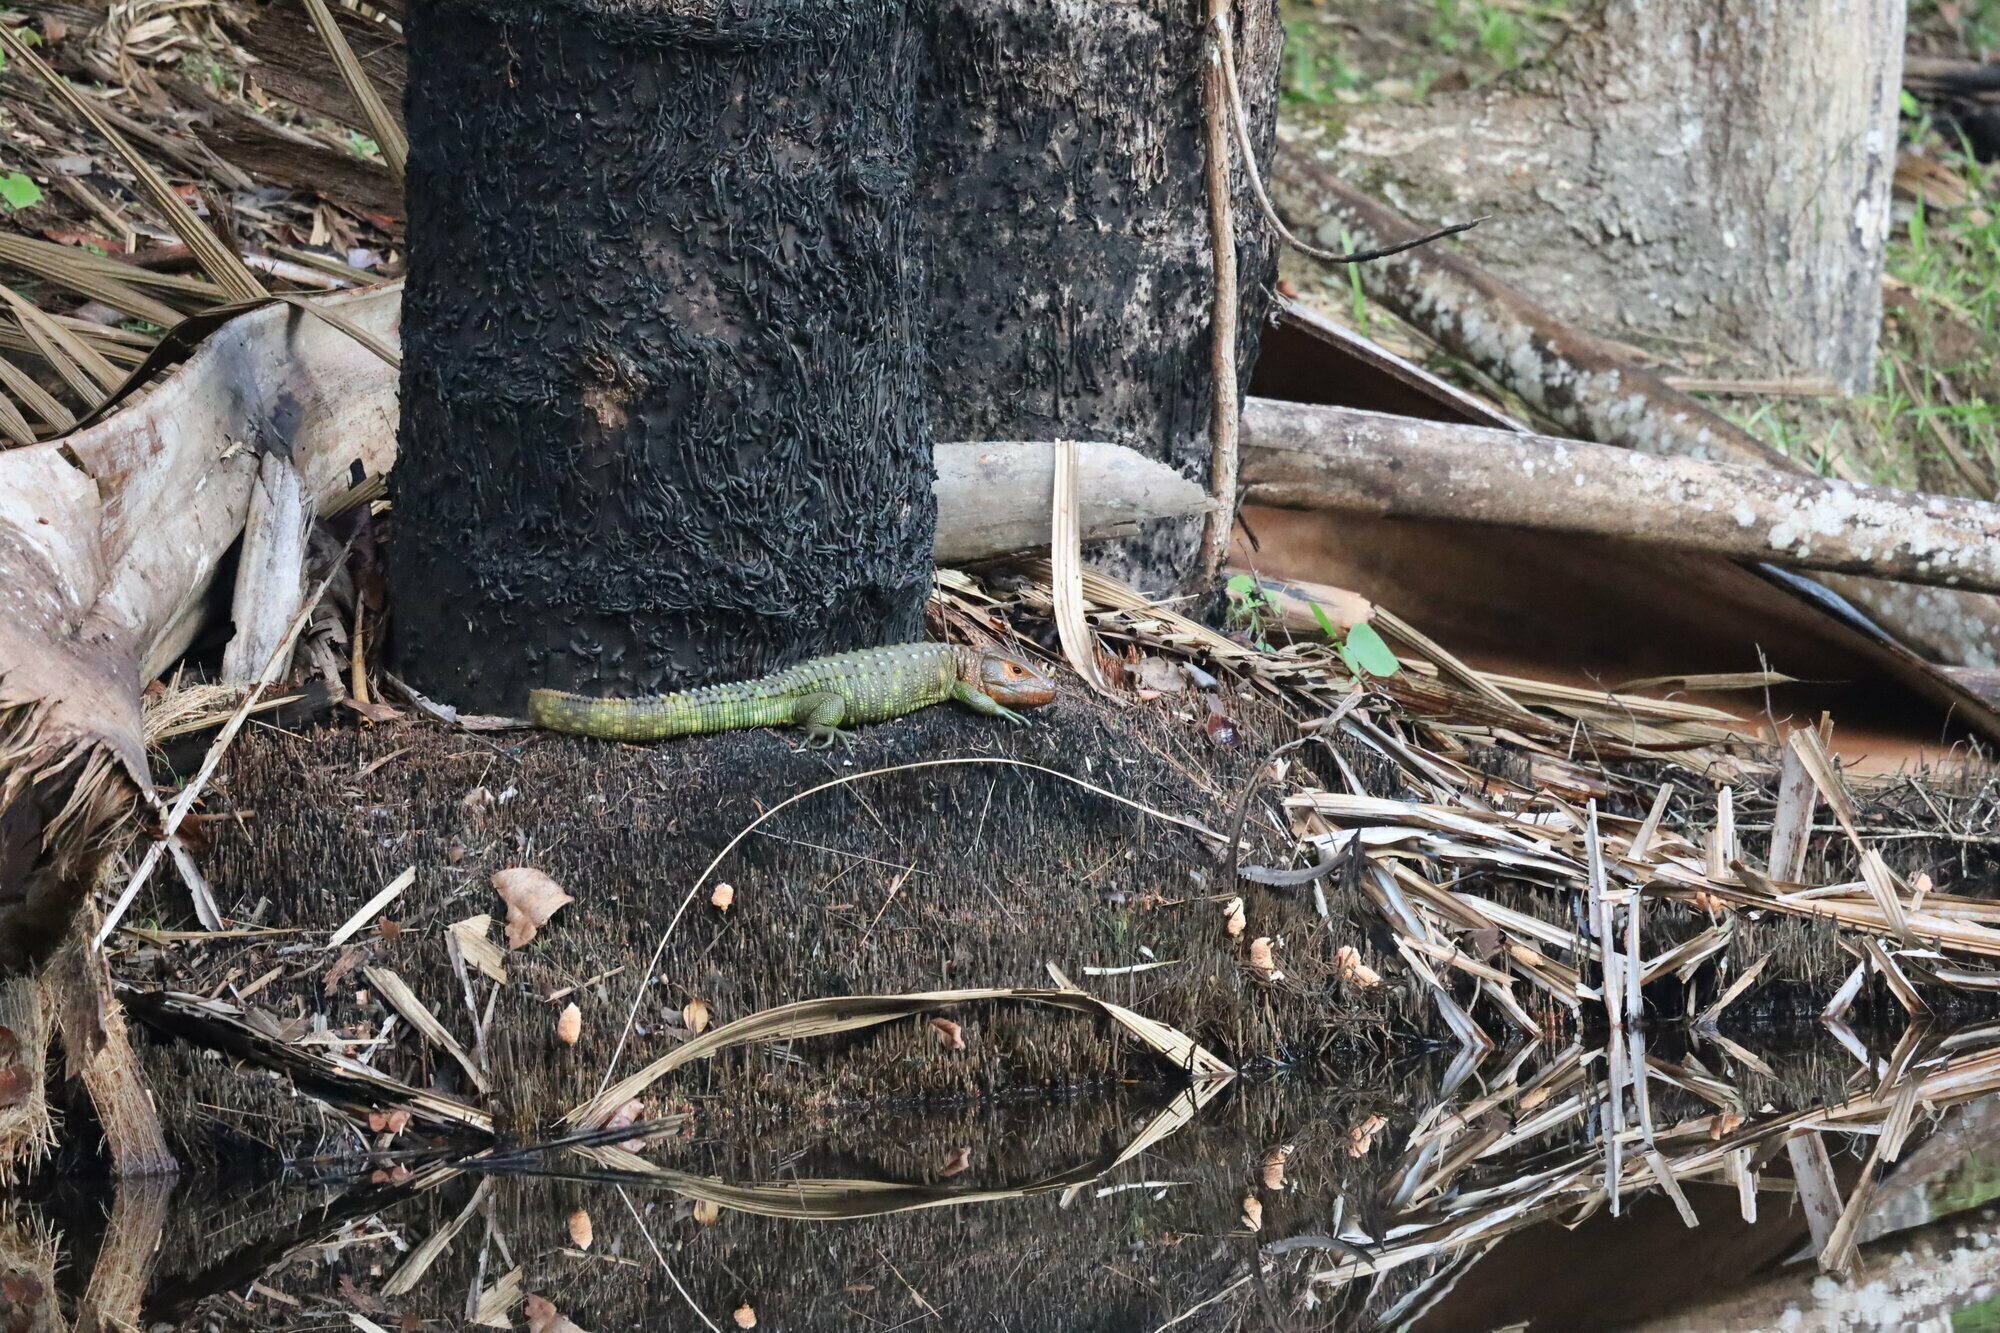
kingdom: Animalia
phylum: Chordata
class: Squamata
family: Teiidae
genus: Dracaena
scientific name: Dracaena guianensis
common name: Guyana caiman lizard
